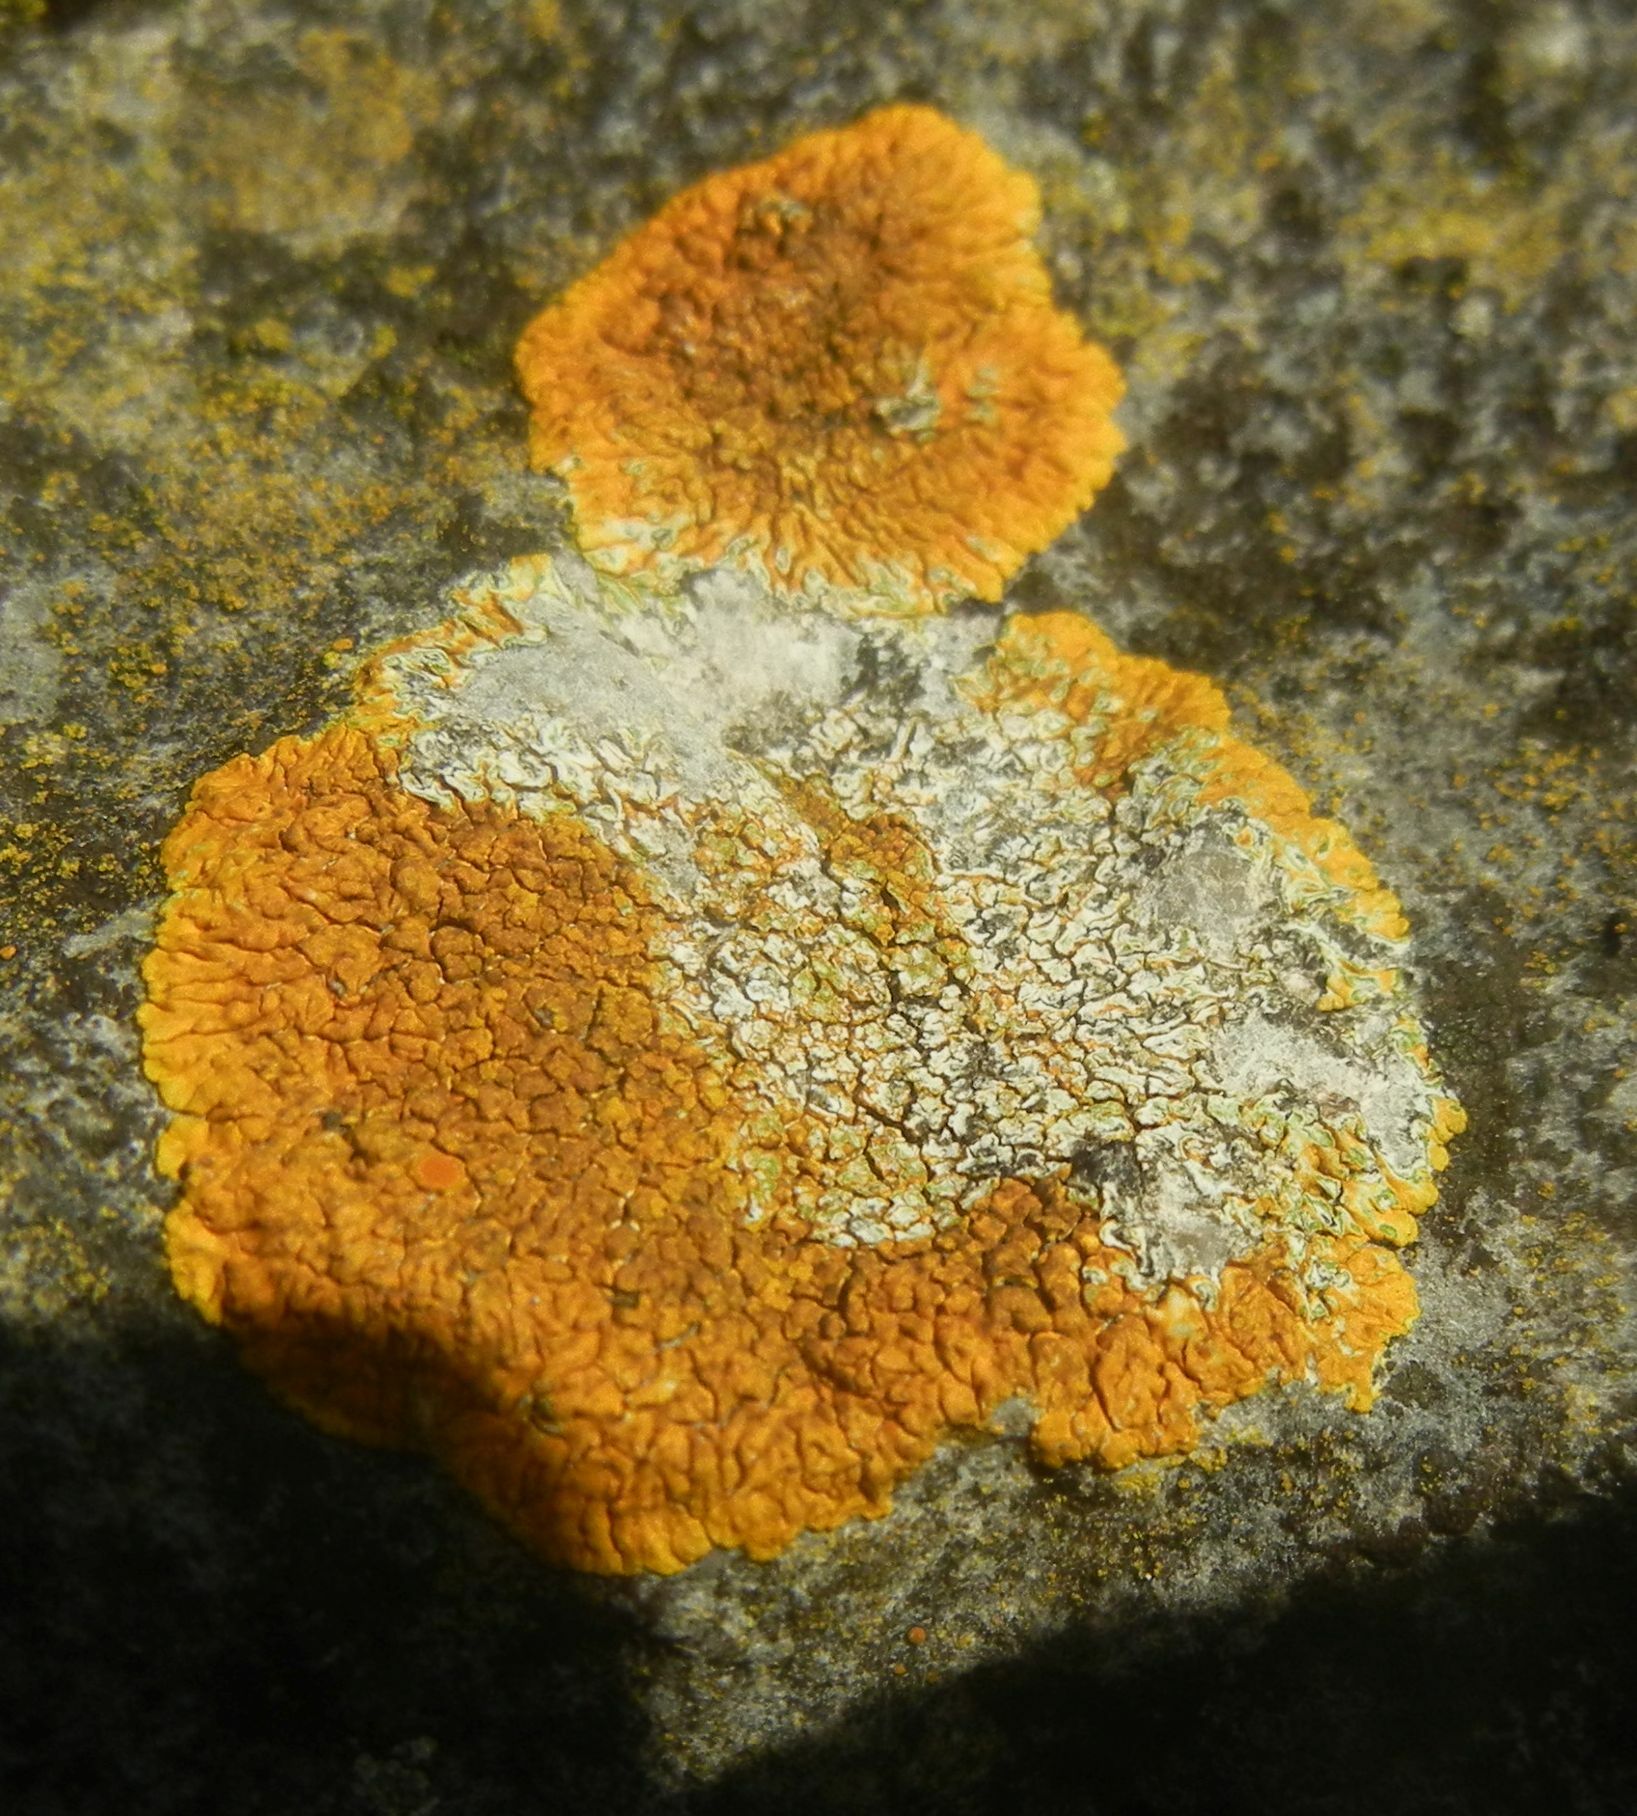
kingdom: Fungi
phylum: Ascomycota
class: Lecanoromycetes
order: Teloschistales
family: Teloschistaceae
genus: Variospora
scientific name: Variospora flavescens
